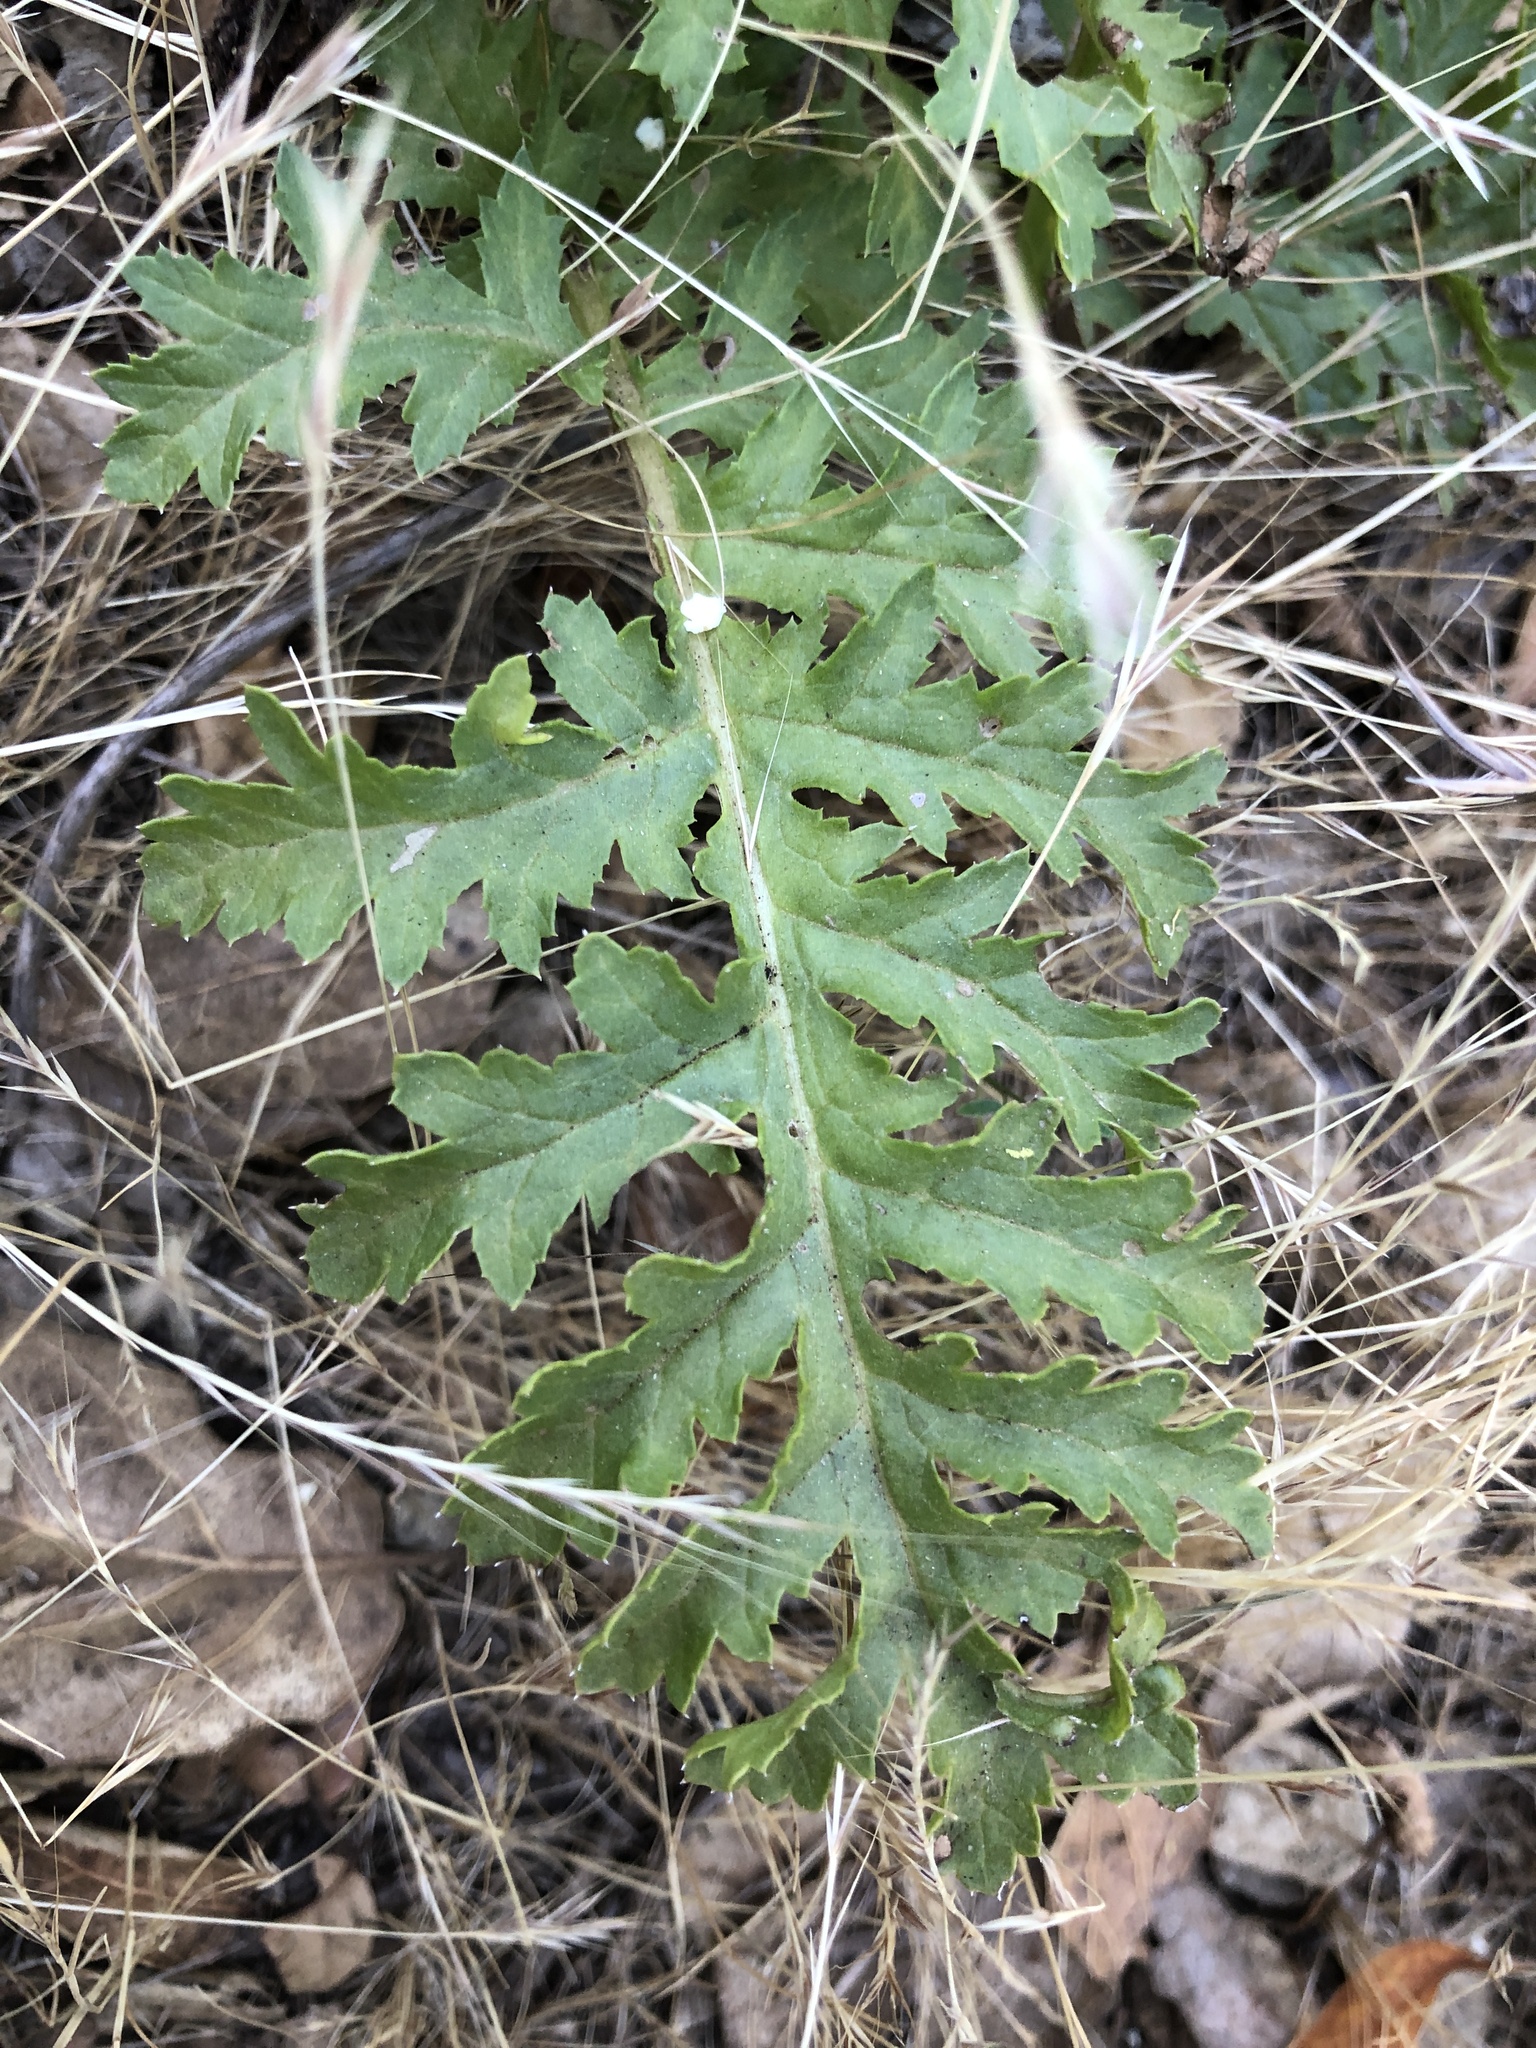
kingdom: Plantae
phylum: Tracheophyta
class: Magnoliopsida
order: Lamiales
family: Orobanchaceae
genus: Pedicularis
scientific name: Pedicularis densiflora
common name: Indian warrior
